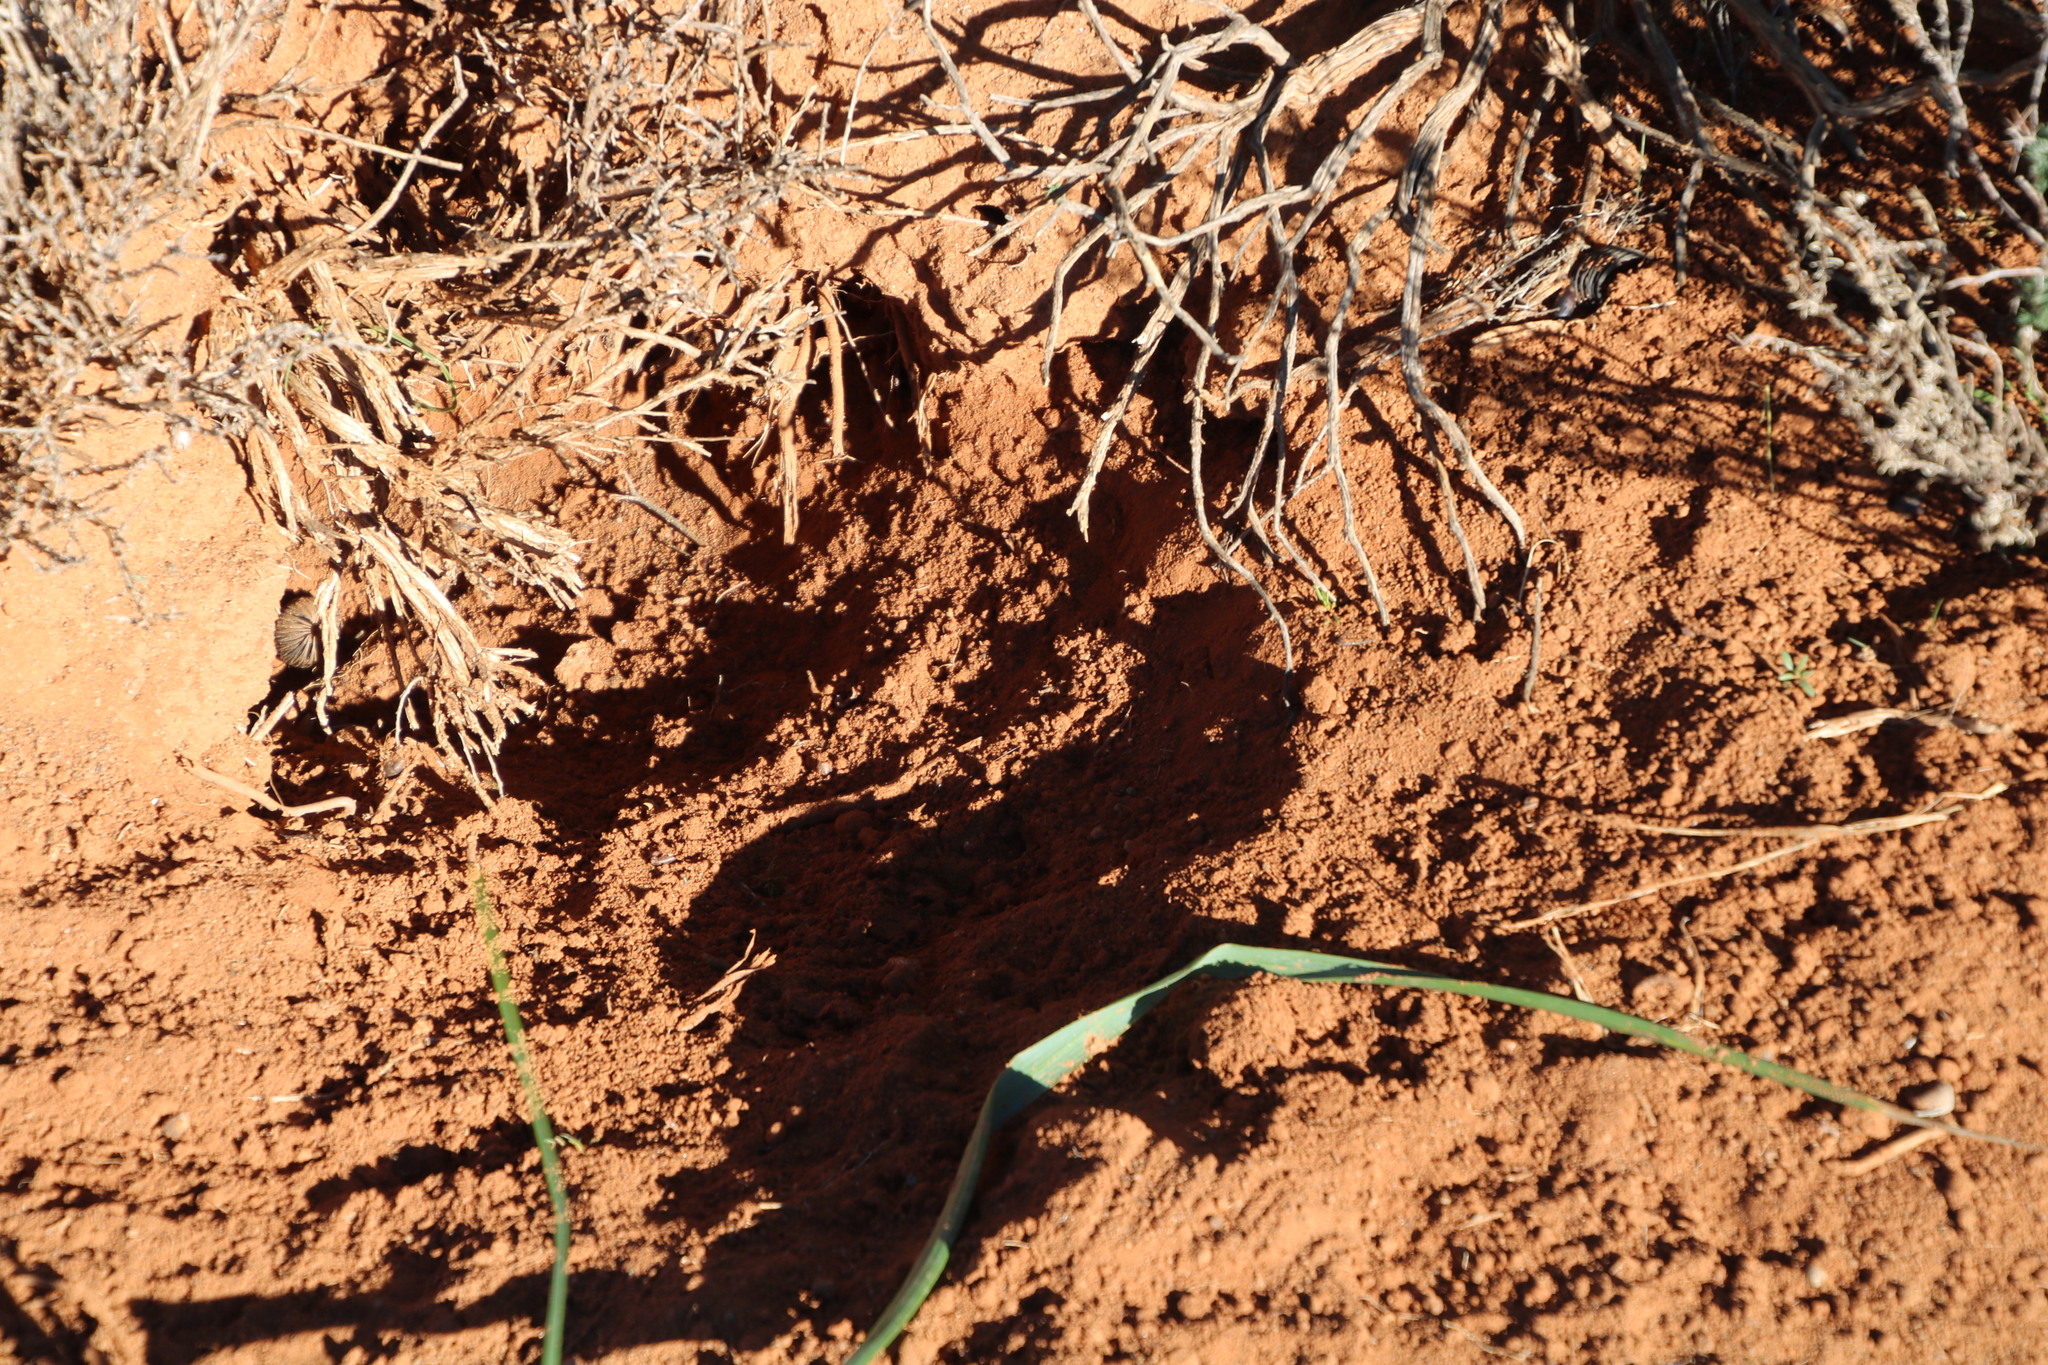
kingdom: Animalia
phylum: Chordata
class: Mammalia
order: Rodentia
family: Sciuridae
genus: Xerus
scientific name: Xerus inauris
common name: South african ground squirrel
